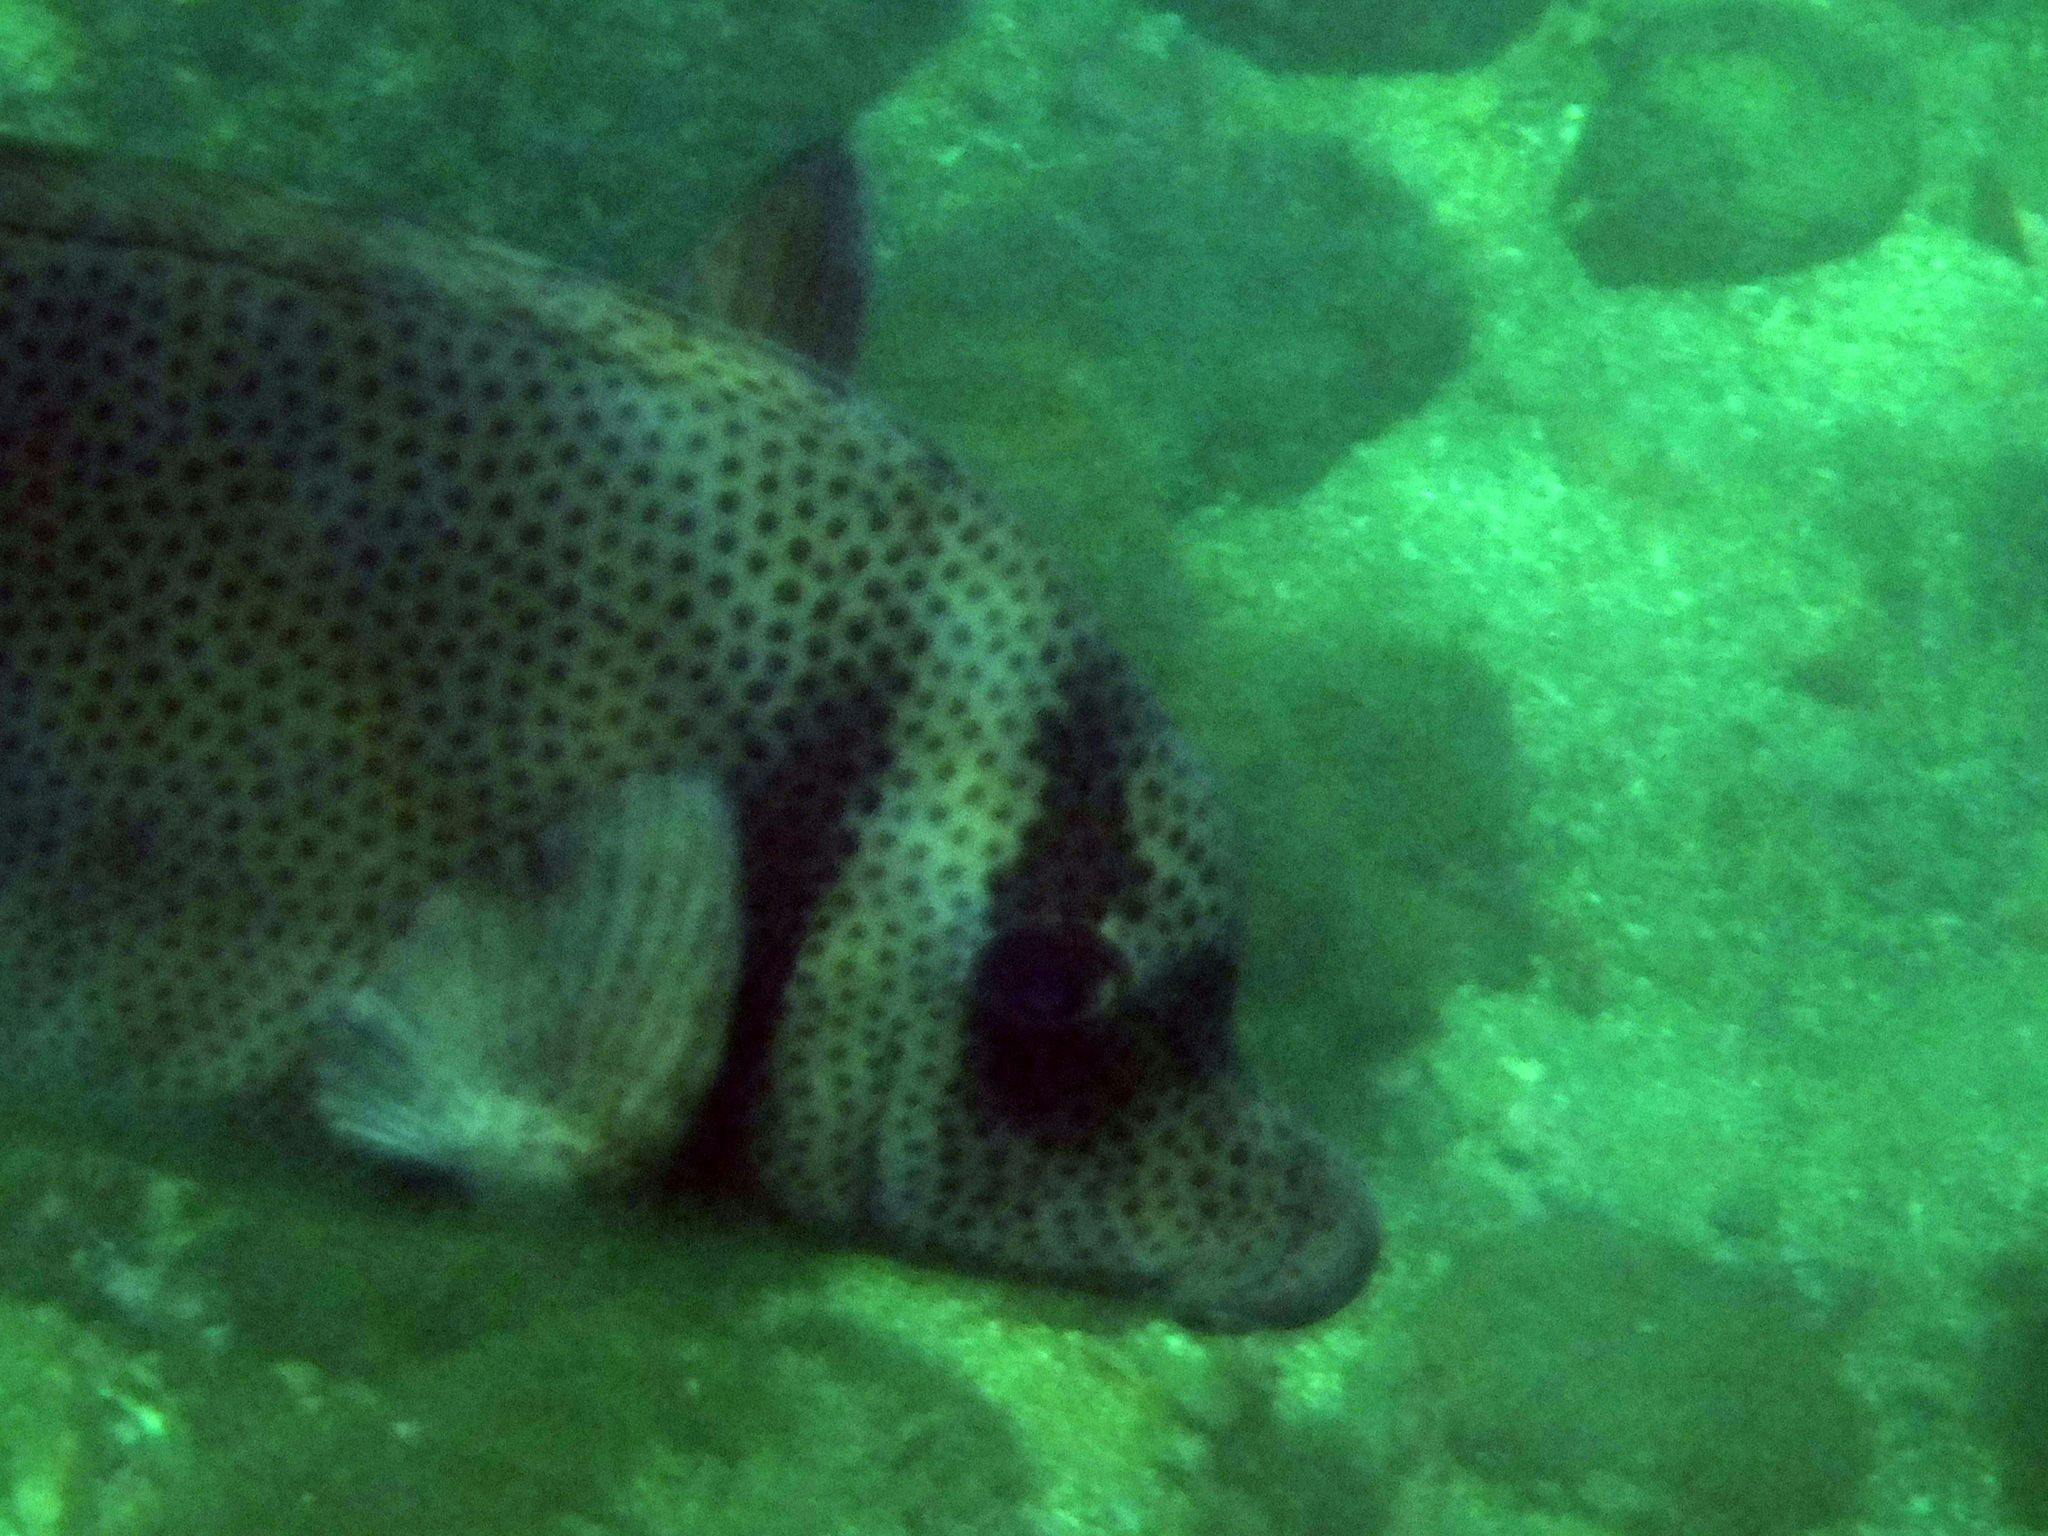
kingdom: Animalia
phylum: Chordata
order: Perciformes
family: Acanthuridae
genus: Prionurus
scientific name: Prionurus laticlavius
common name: Razor surgeonfish
